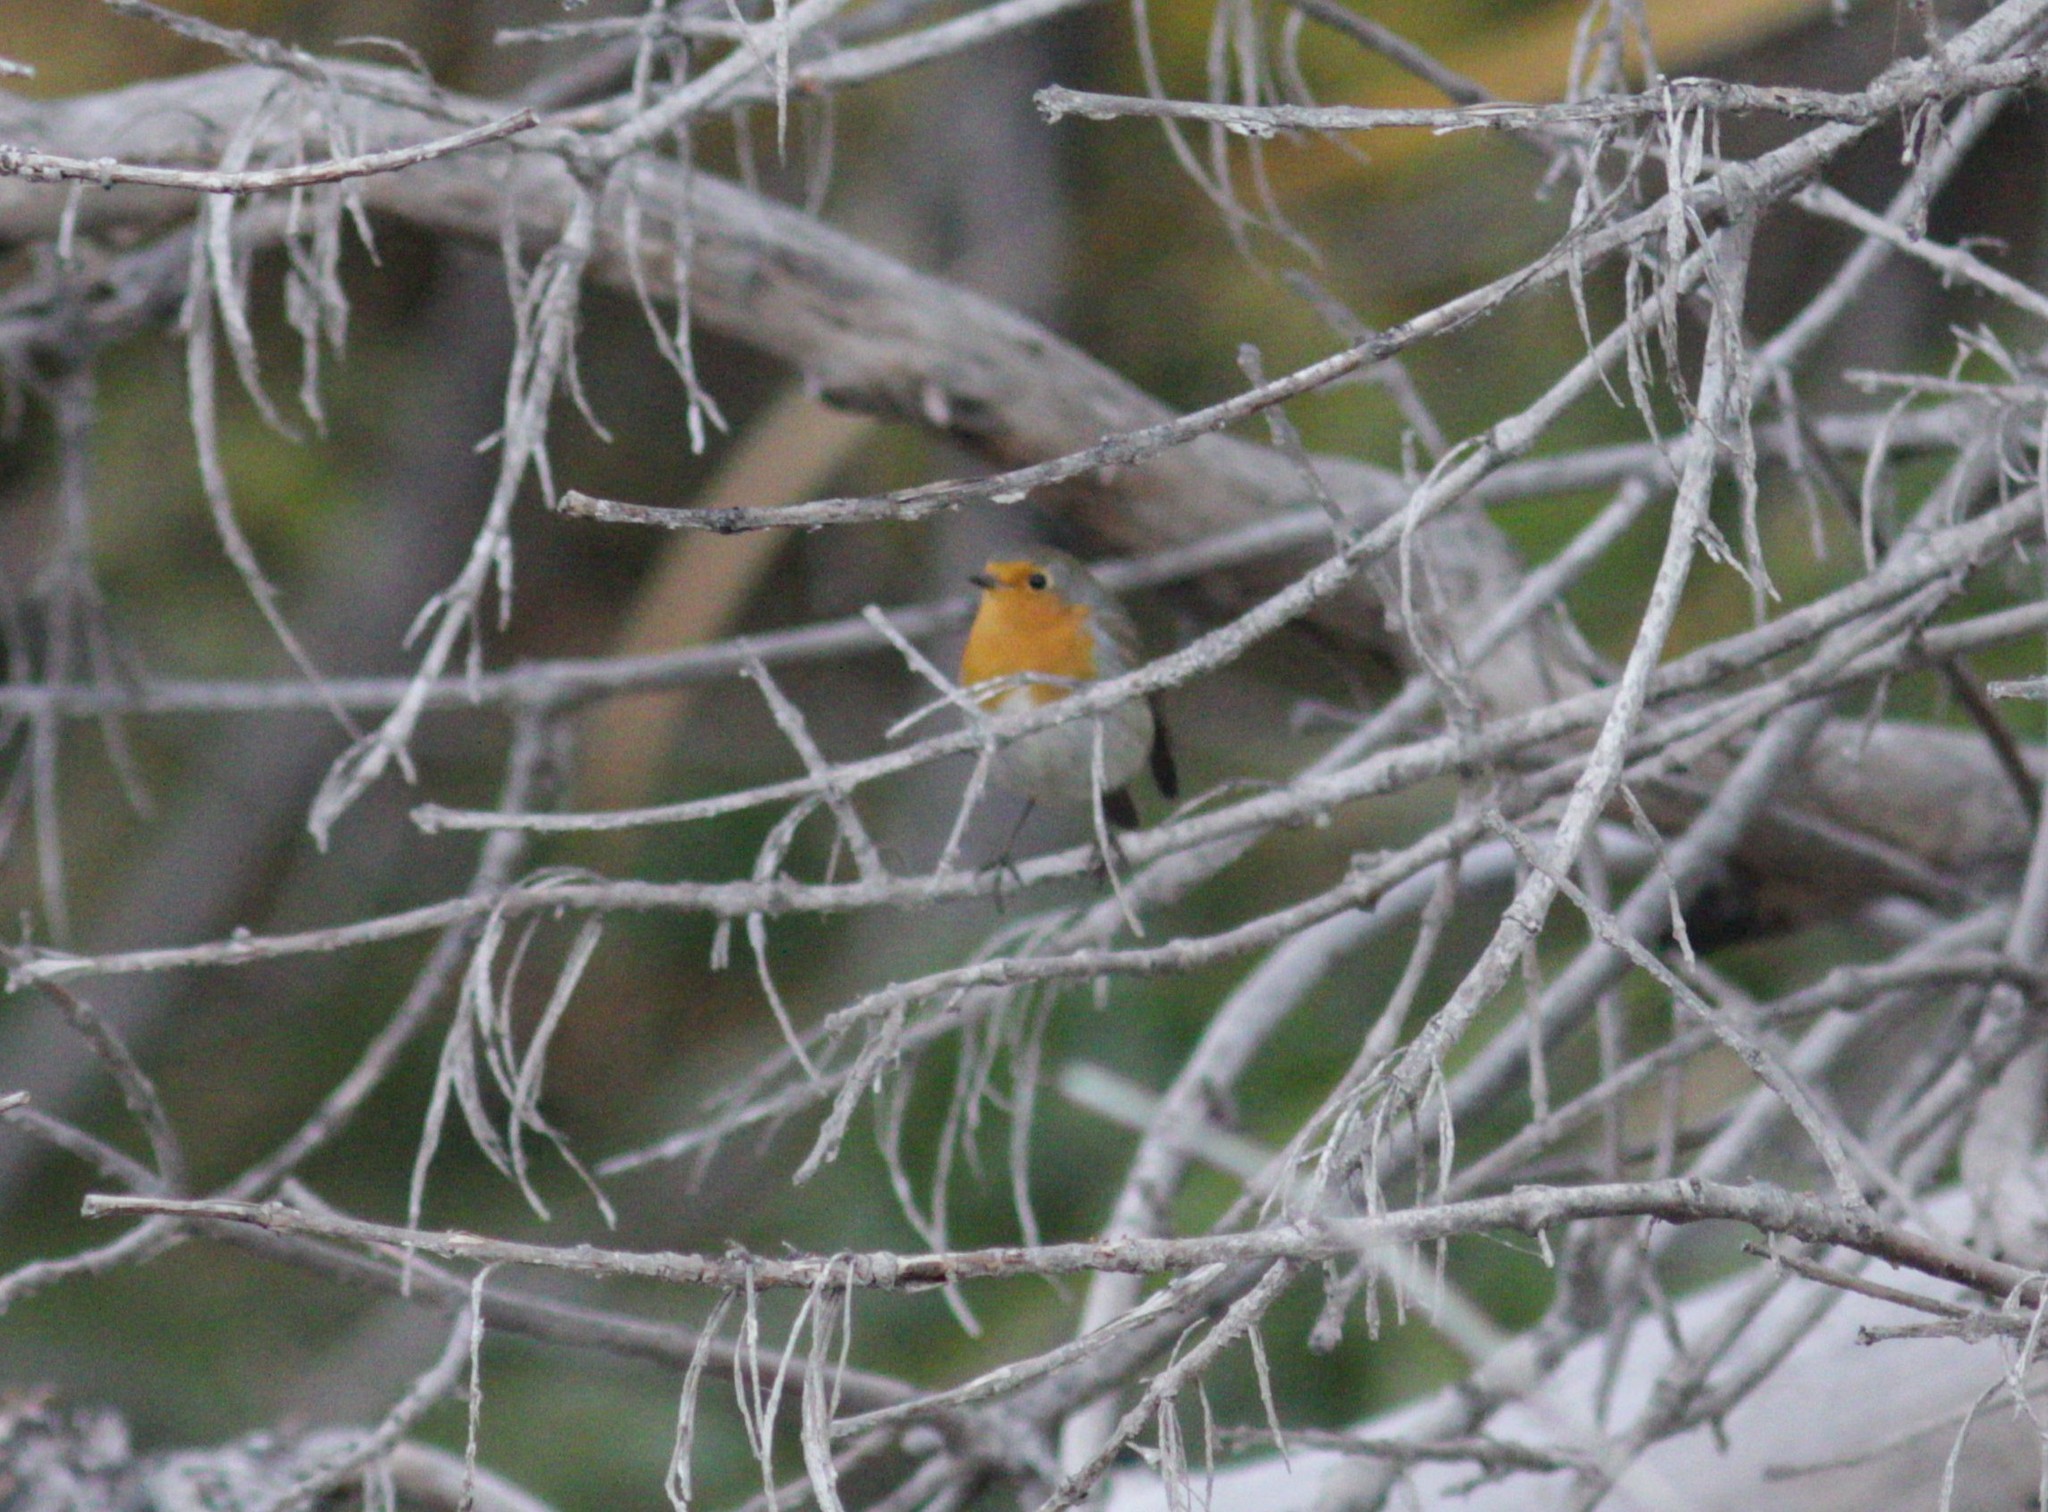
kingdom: Animalia
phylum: Chordata
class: Aves
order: Passeriformes
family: Muscicapidae
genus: Erithacus
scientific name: Erithacus rubecula
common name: European robin
